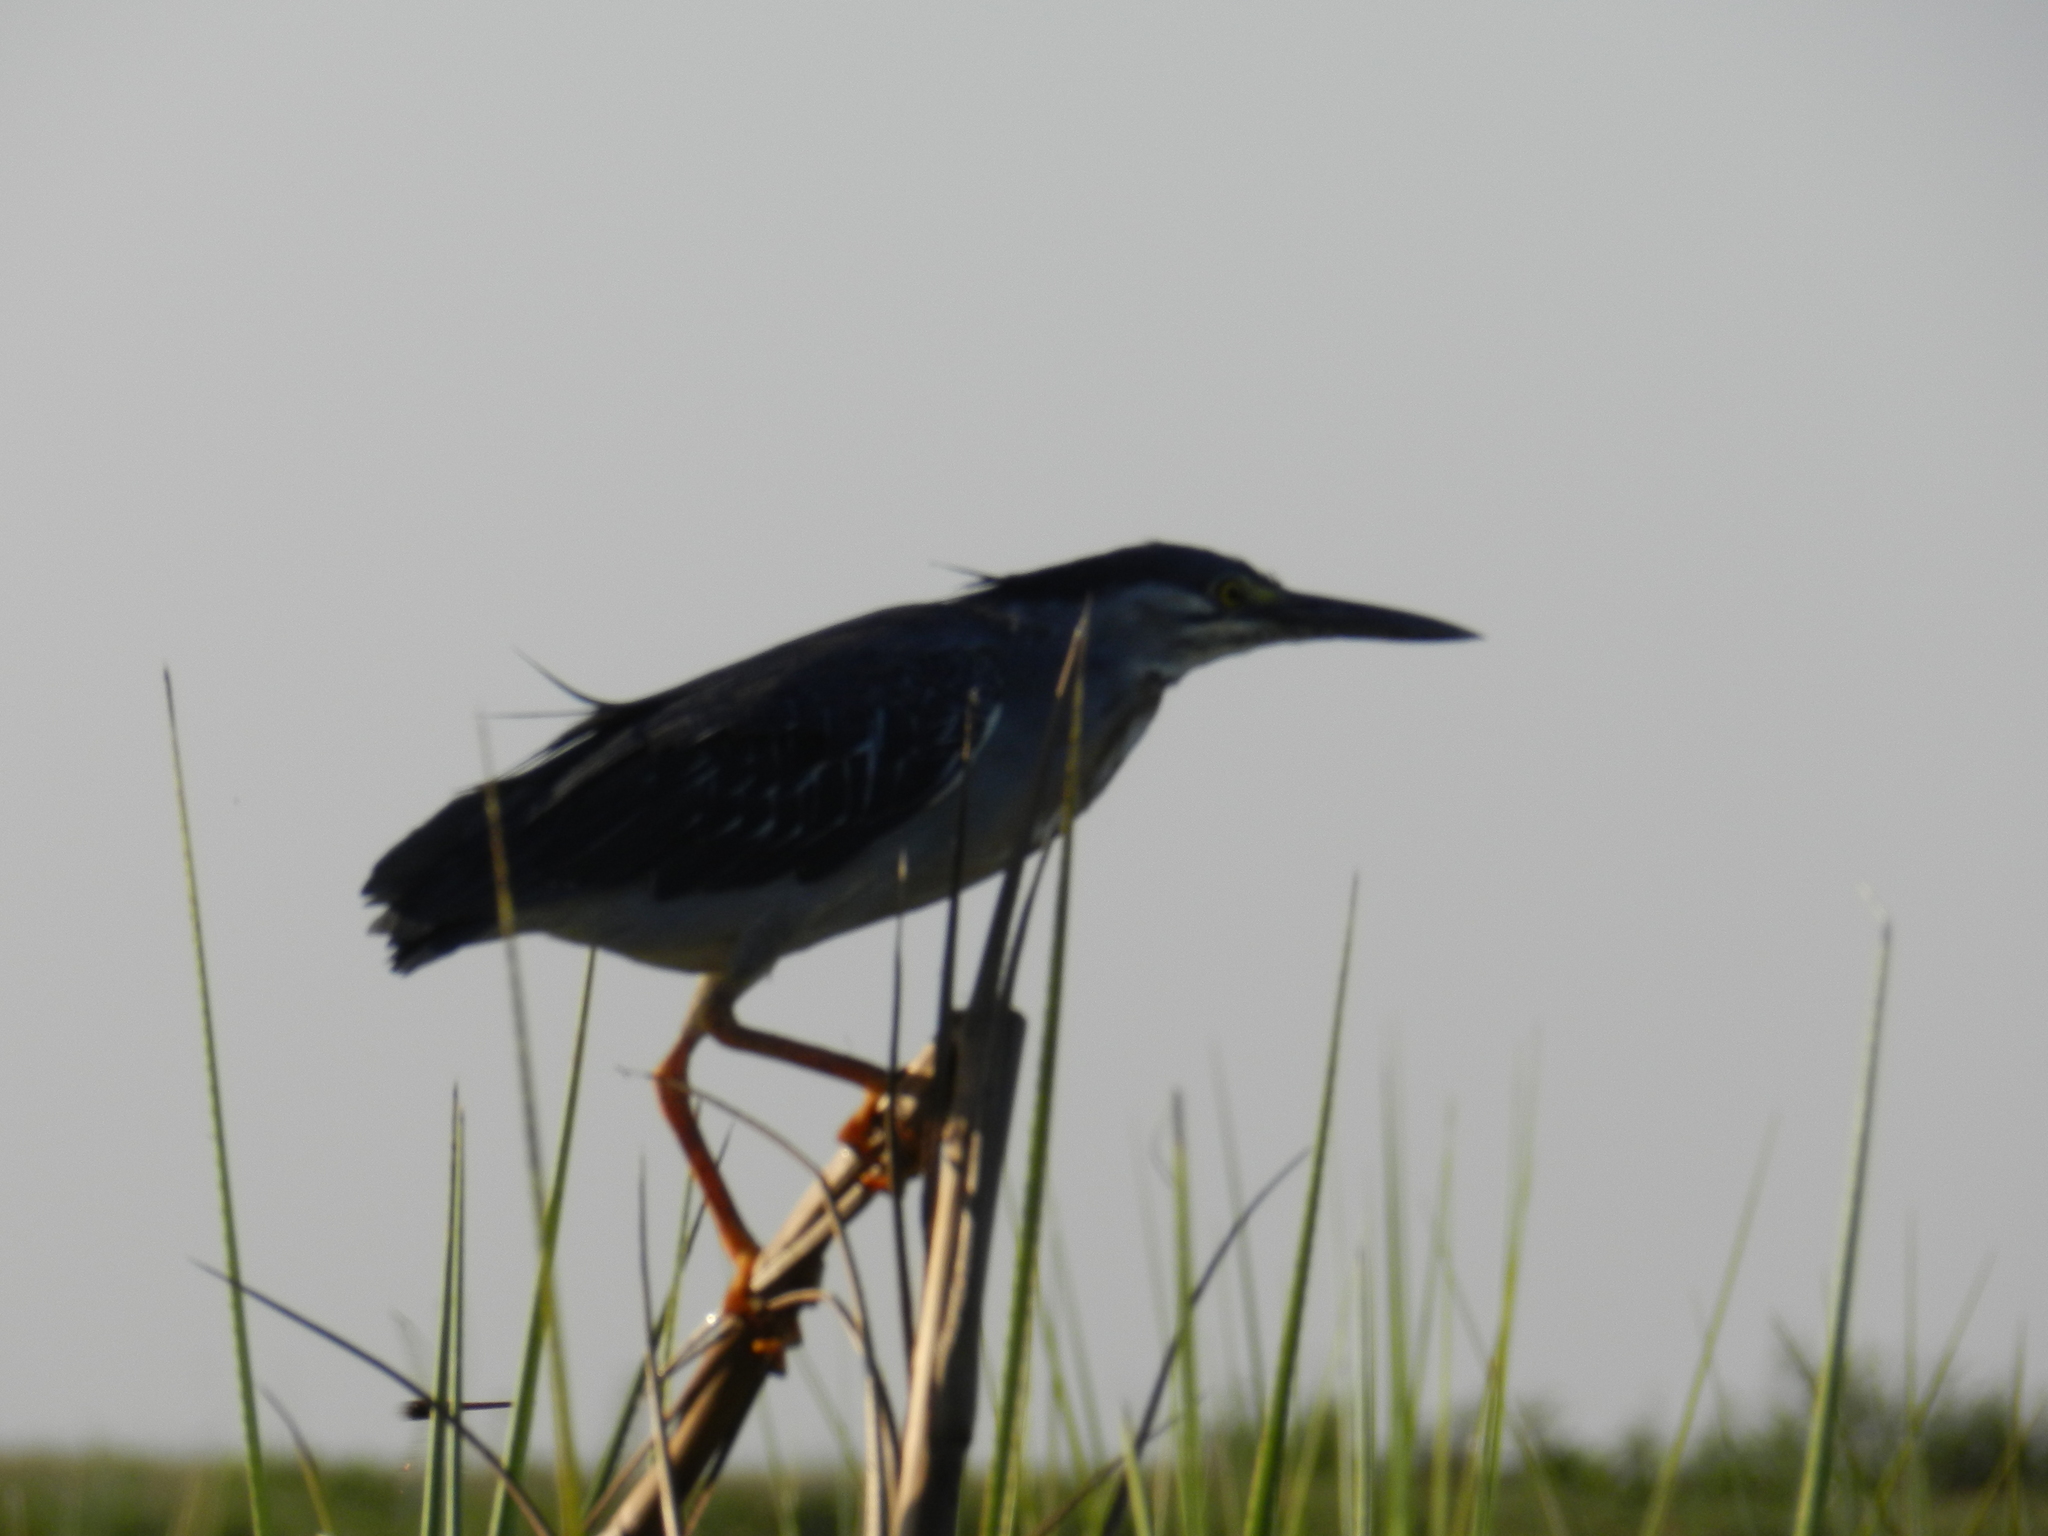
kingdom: Animalia
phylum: Chordata
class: Aves
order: Pelecaniformes
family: Ardeidae
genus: Butorides
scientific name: Butorides striata
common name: Striated heron
